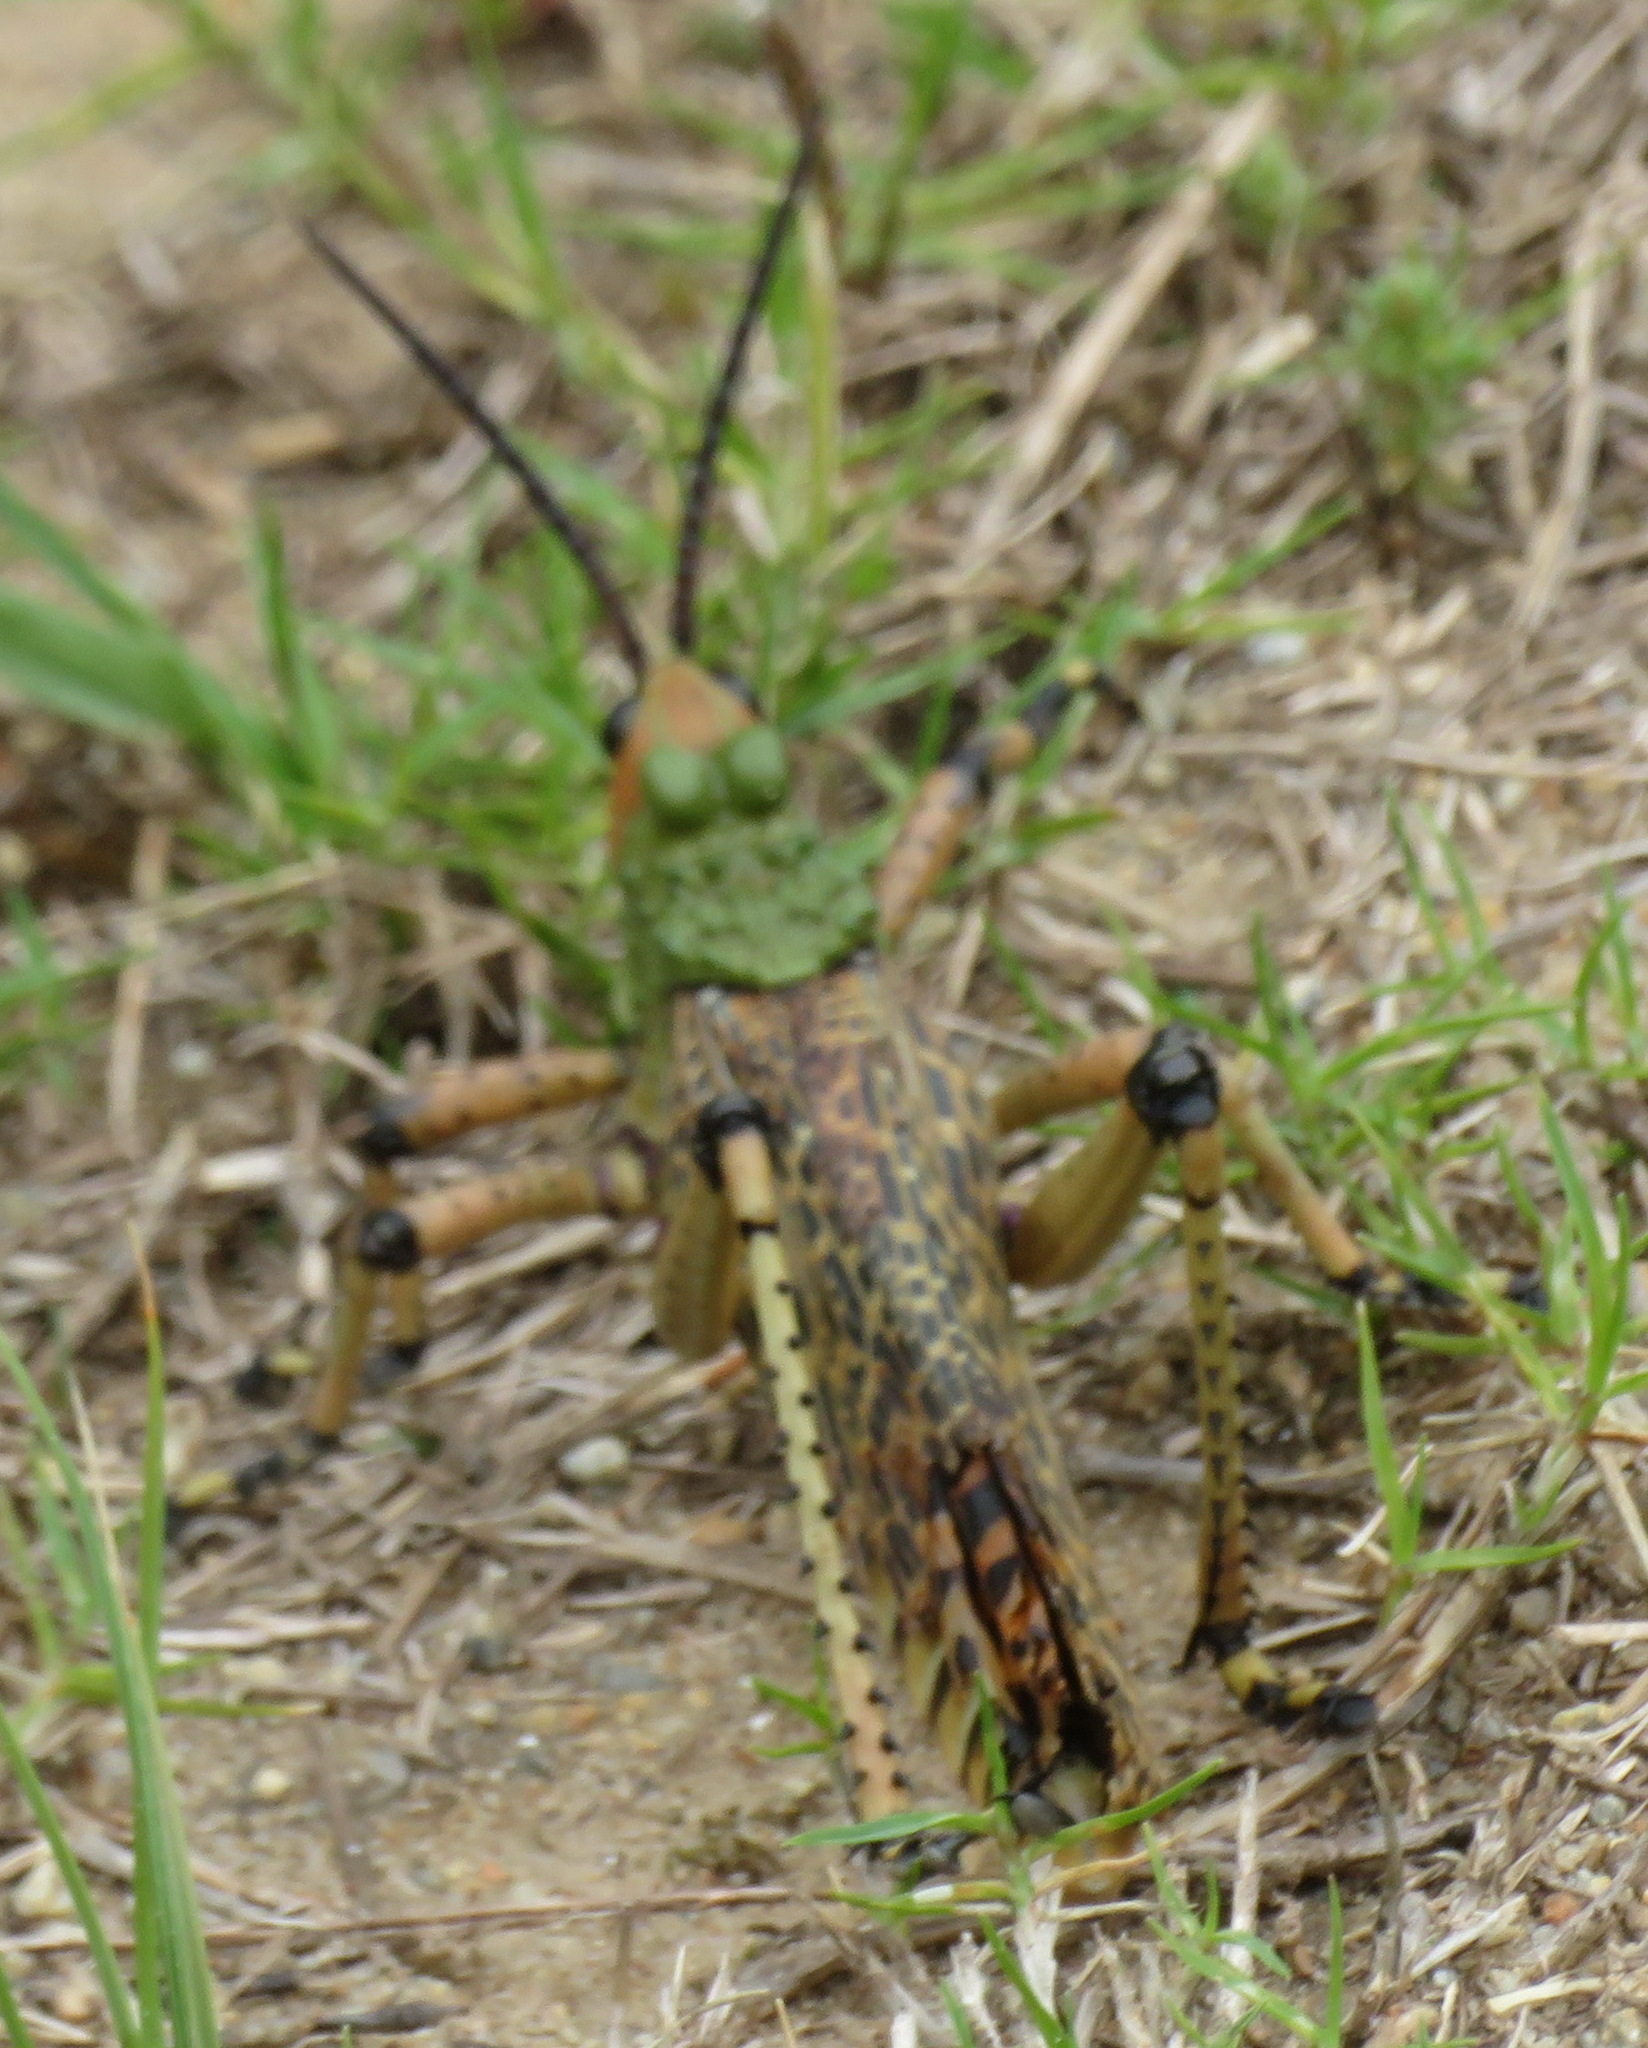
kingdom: Animalia
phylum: Arthropoda
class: Insecta
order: Orthoptera
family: Pyrgomorphidae
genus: Phymateus
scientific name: Phymateus leprosus
